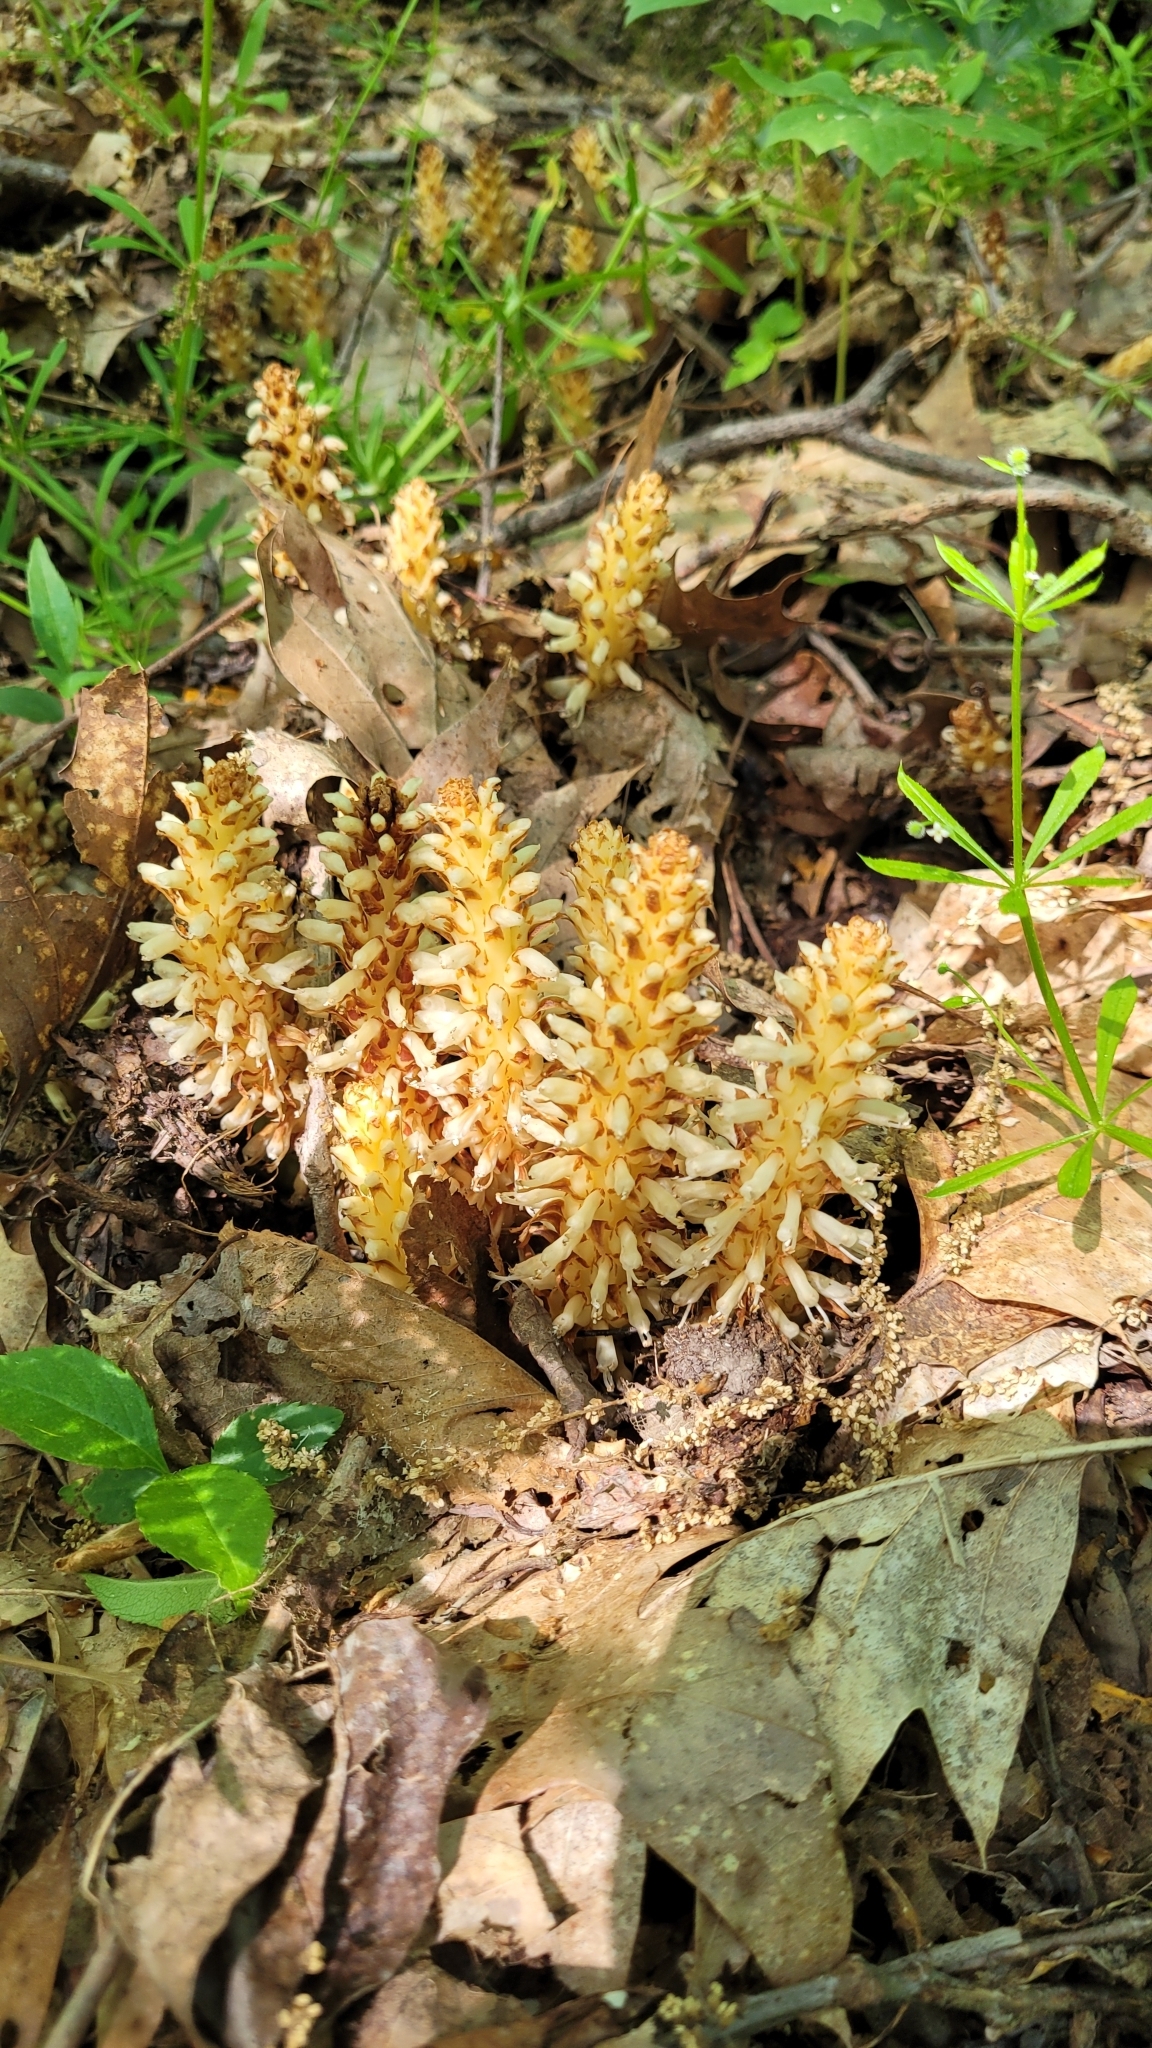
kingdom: Plantae
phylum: Tracheophyta
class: Magnoliopsida
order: Lamiales
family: Orobanchaceae
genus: Conopholis
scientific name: Conopholis americana
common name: American cancer-root
